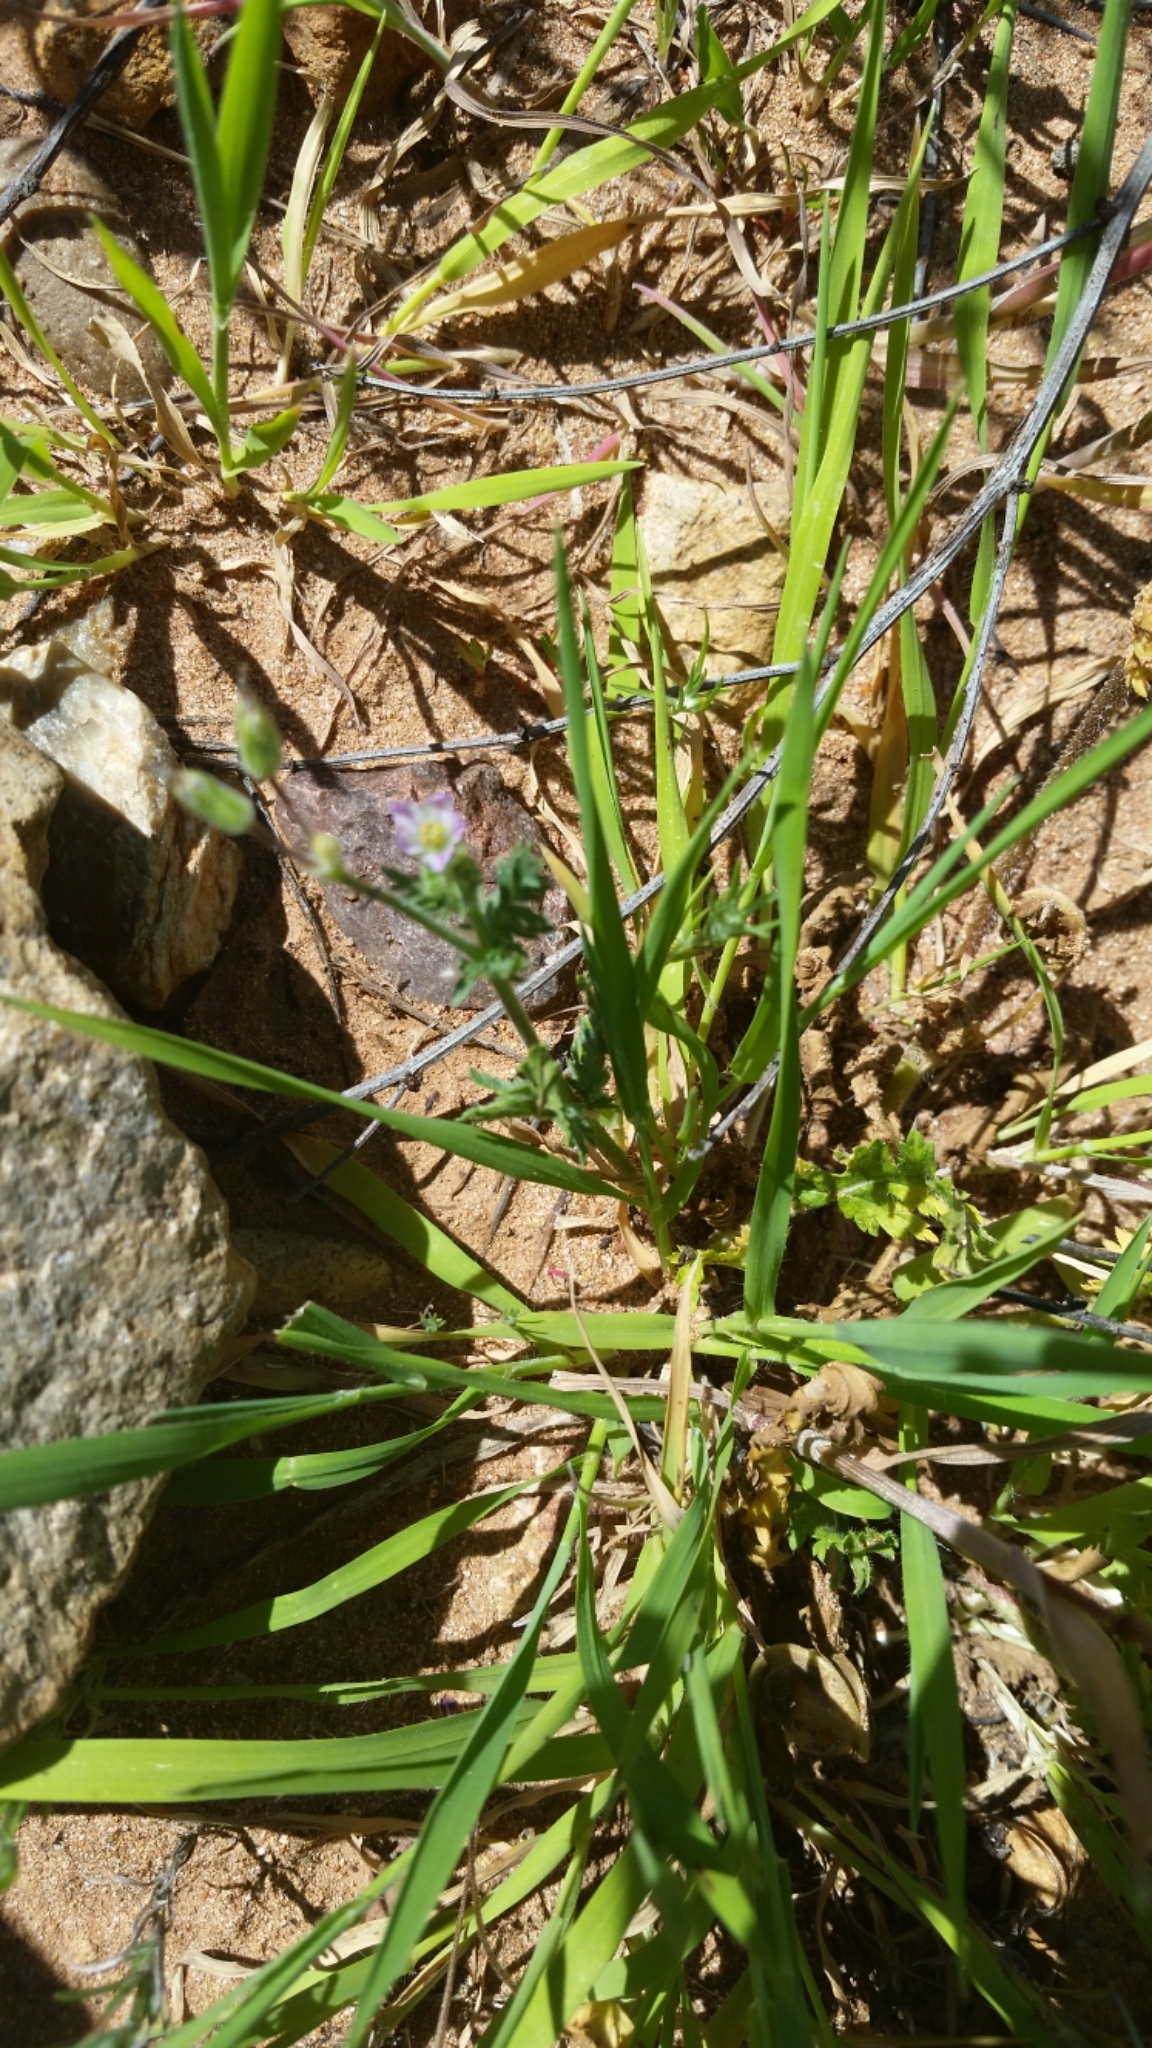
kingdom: Plantae
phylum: Tracheophyta
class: Liliopsida
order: Poales
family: Poaceae
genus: Bromus
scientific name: Bromus madritensis
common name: Compact brome
